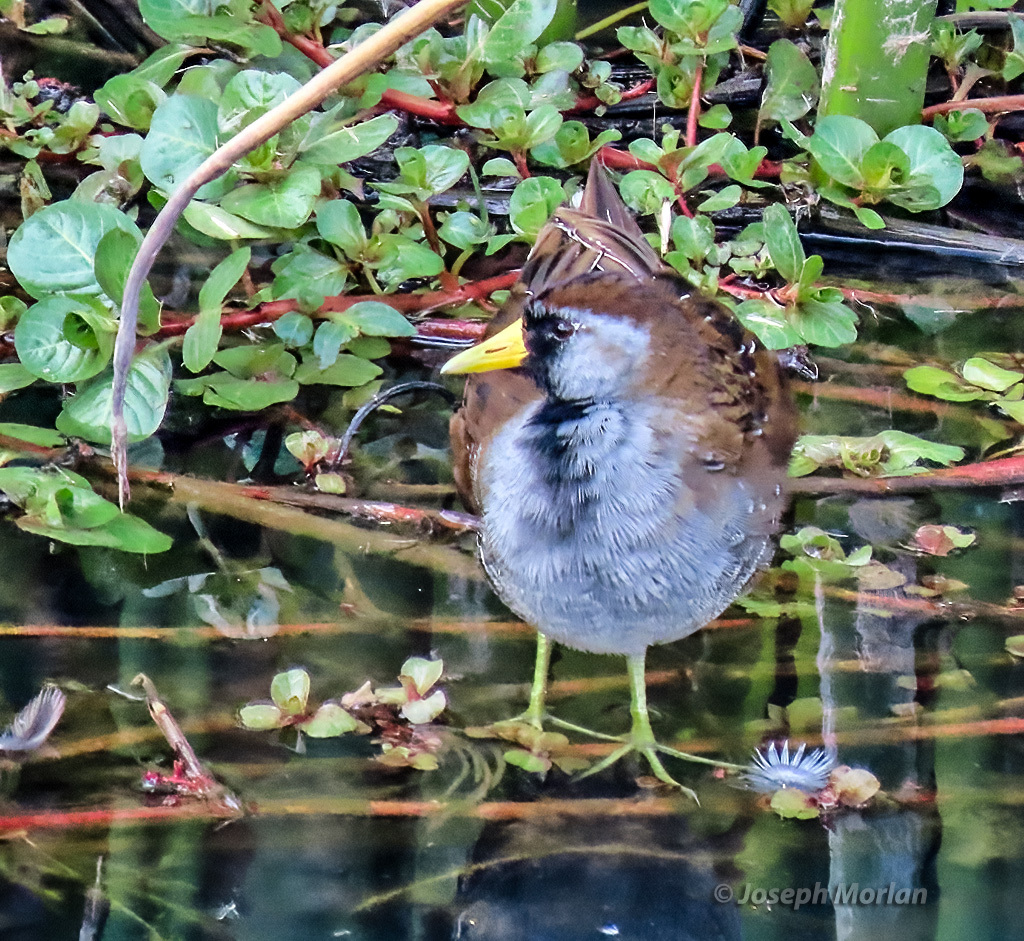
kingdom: Animalia
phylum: Chordata
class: Aves
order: Gruiformes
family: Rallidae
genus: Porzana
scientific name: Porzana carolina
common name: Sora
